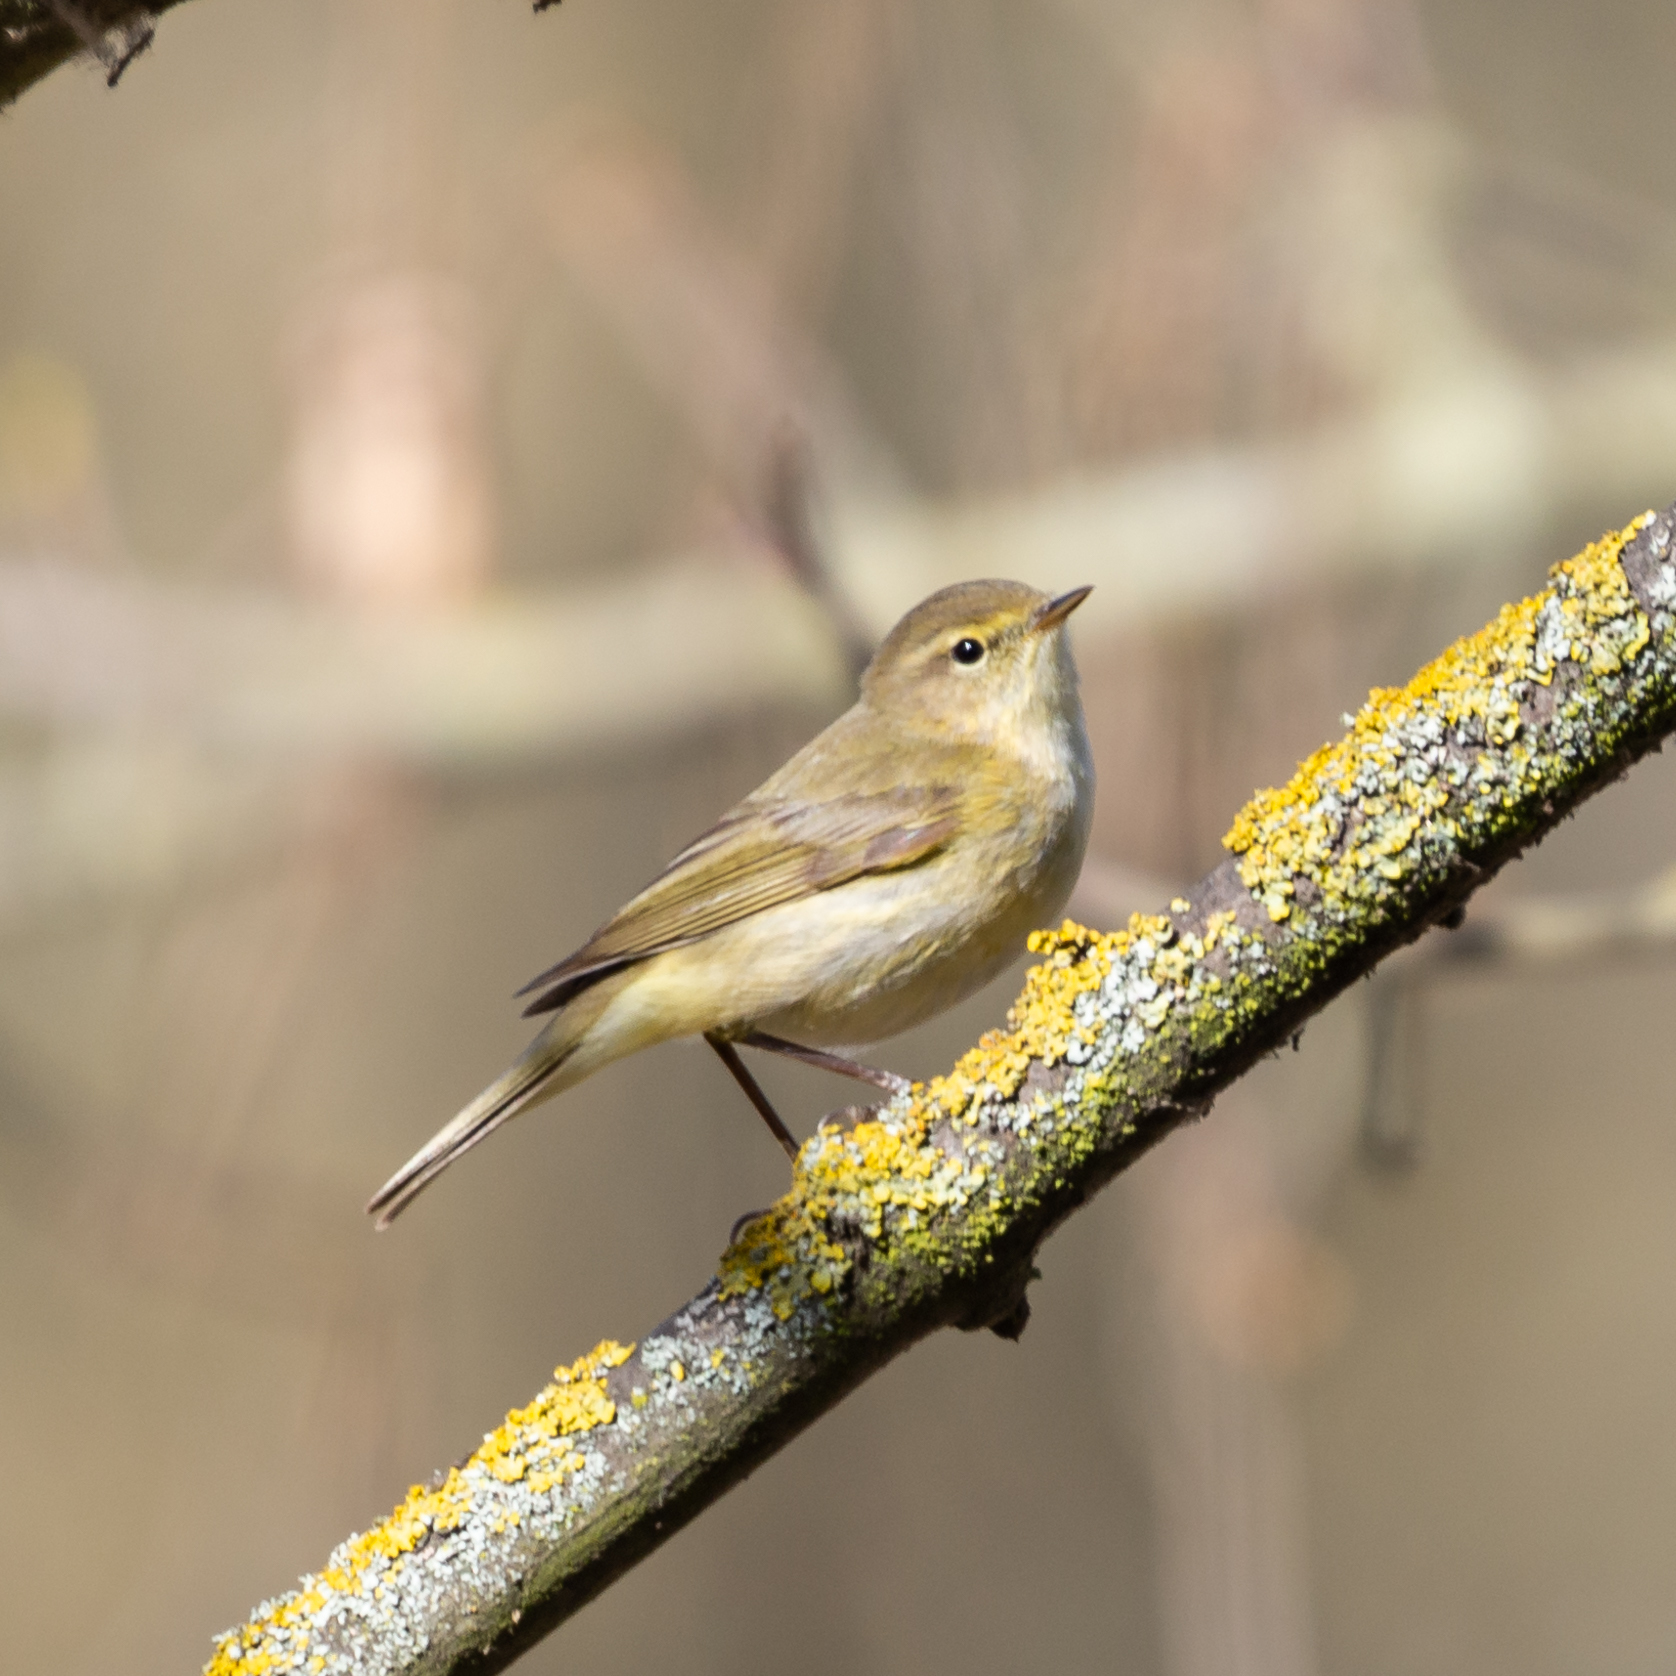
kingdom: Animalia
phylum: Chordata
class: Aves
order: Passeriformes
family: Phylloscopidae
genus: Phylloscopus
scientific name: Phylloscopus ibericus
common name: Iberian chiffchaff
